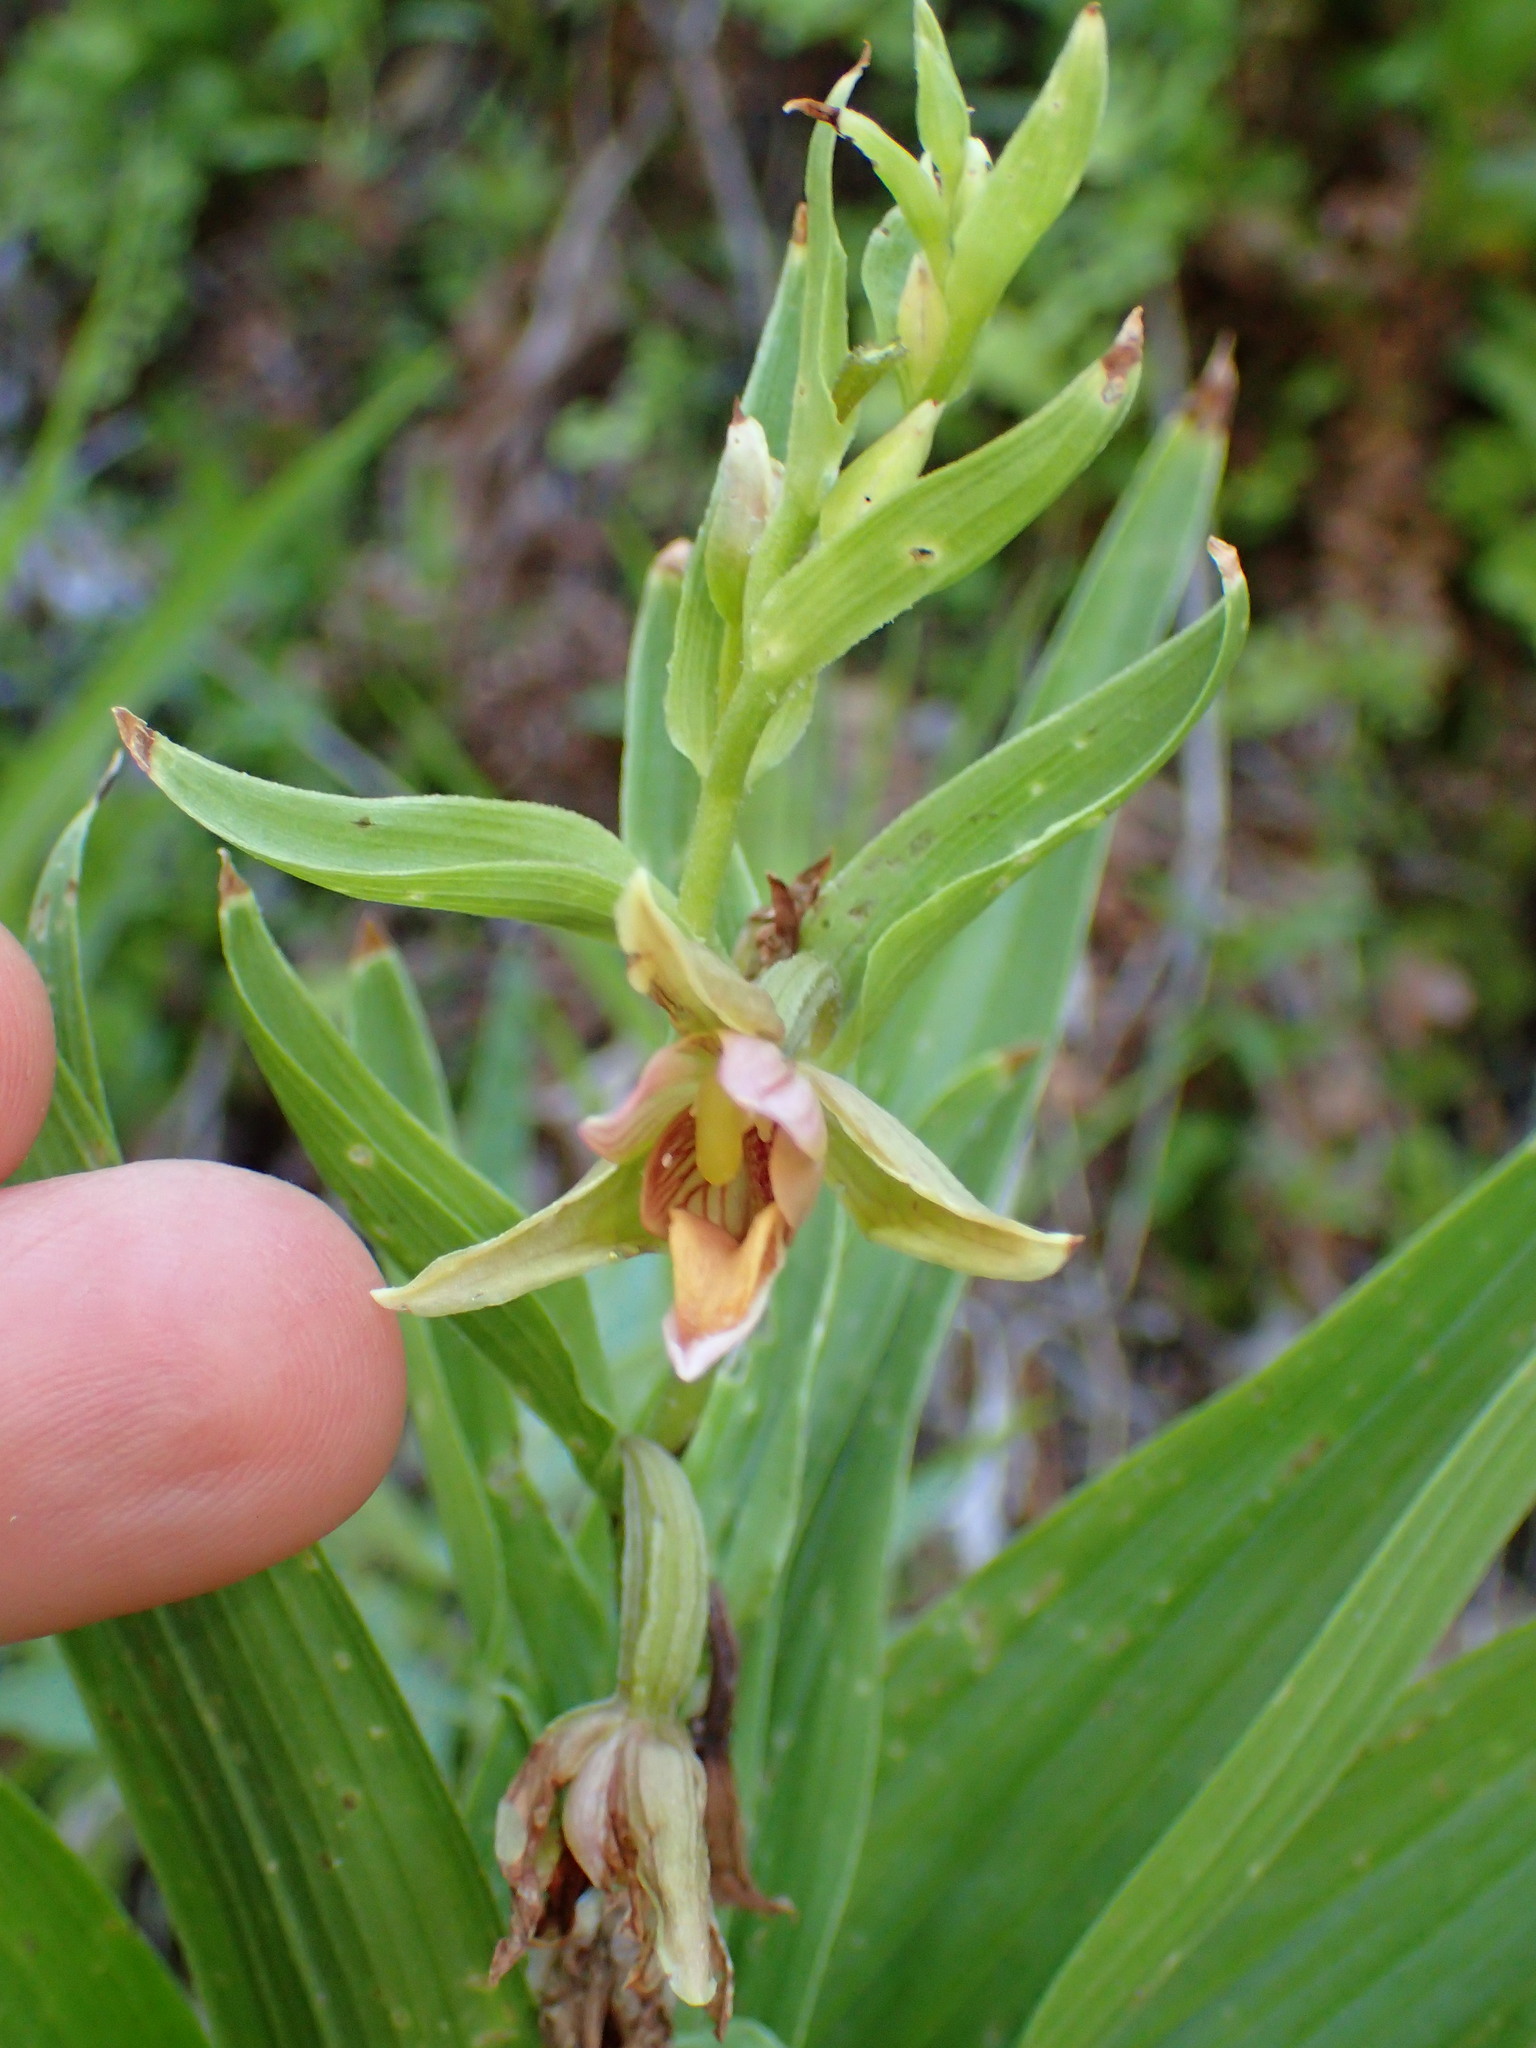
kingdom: Plantae
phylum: Tracheophyta
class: Liliopsida
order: Asparagales
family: Orchidaceae
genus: Epipactis
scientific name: Epipactis gigantea
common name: Chatterbox
